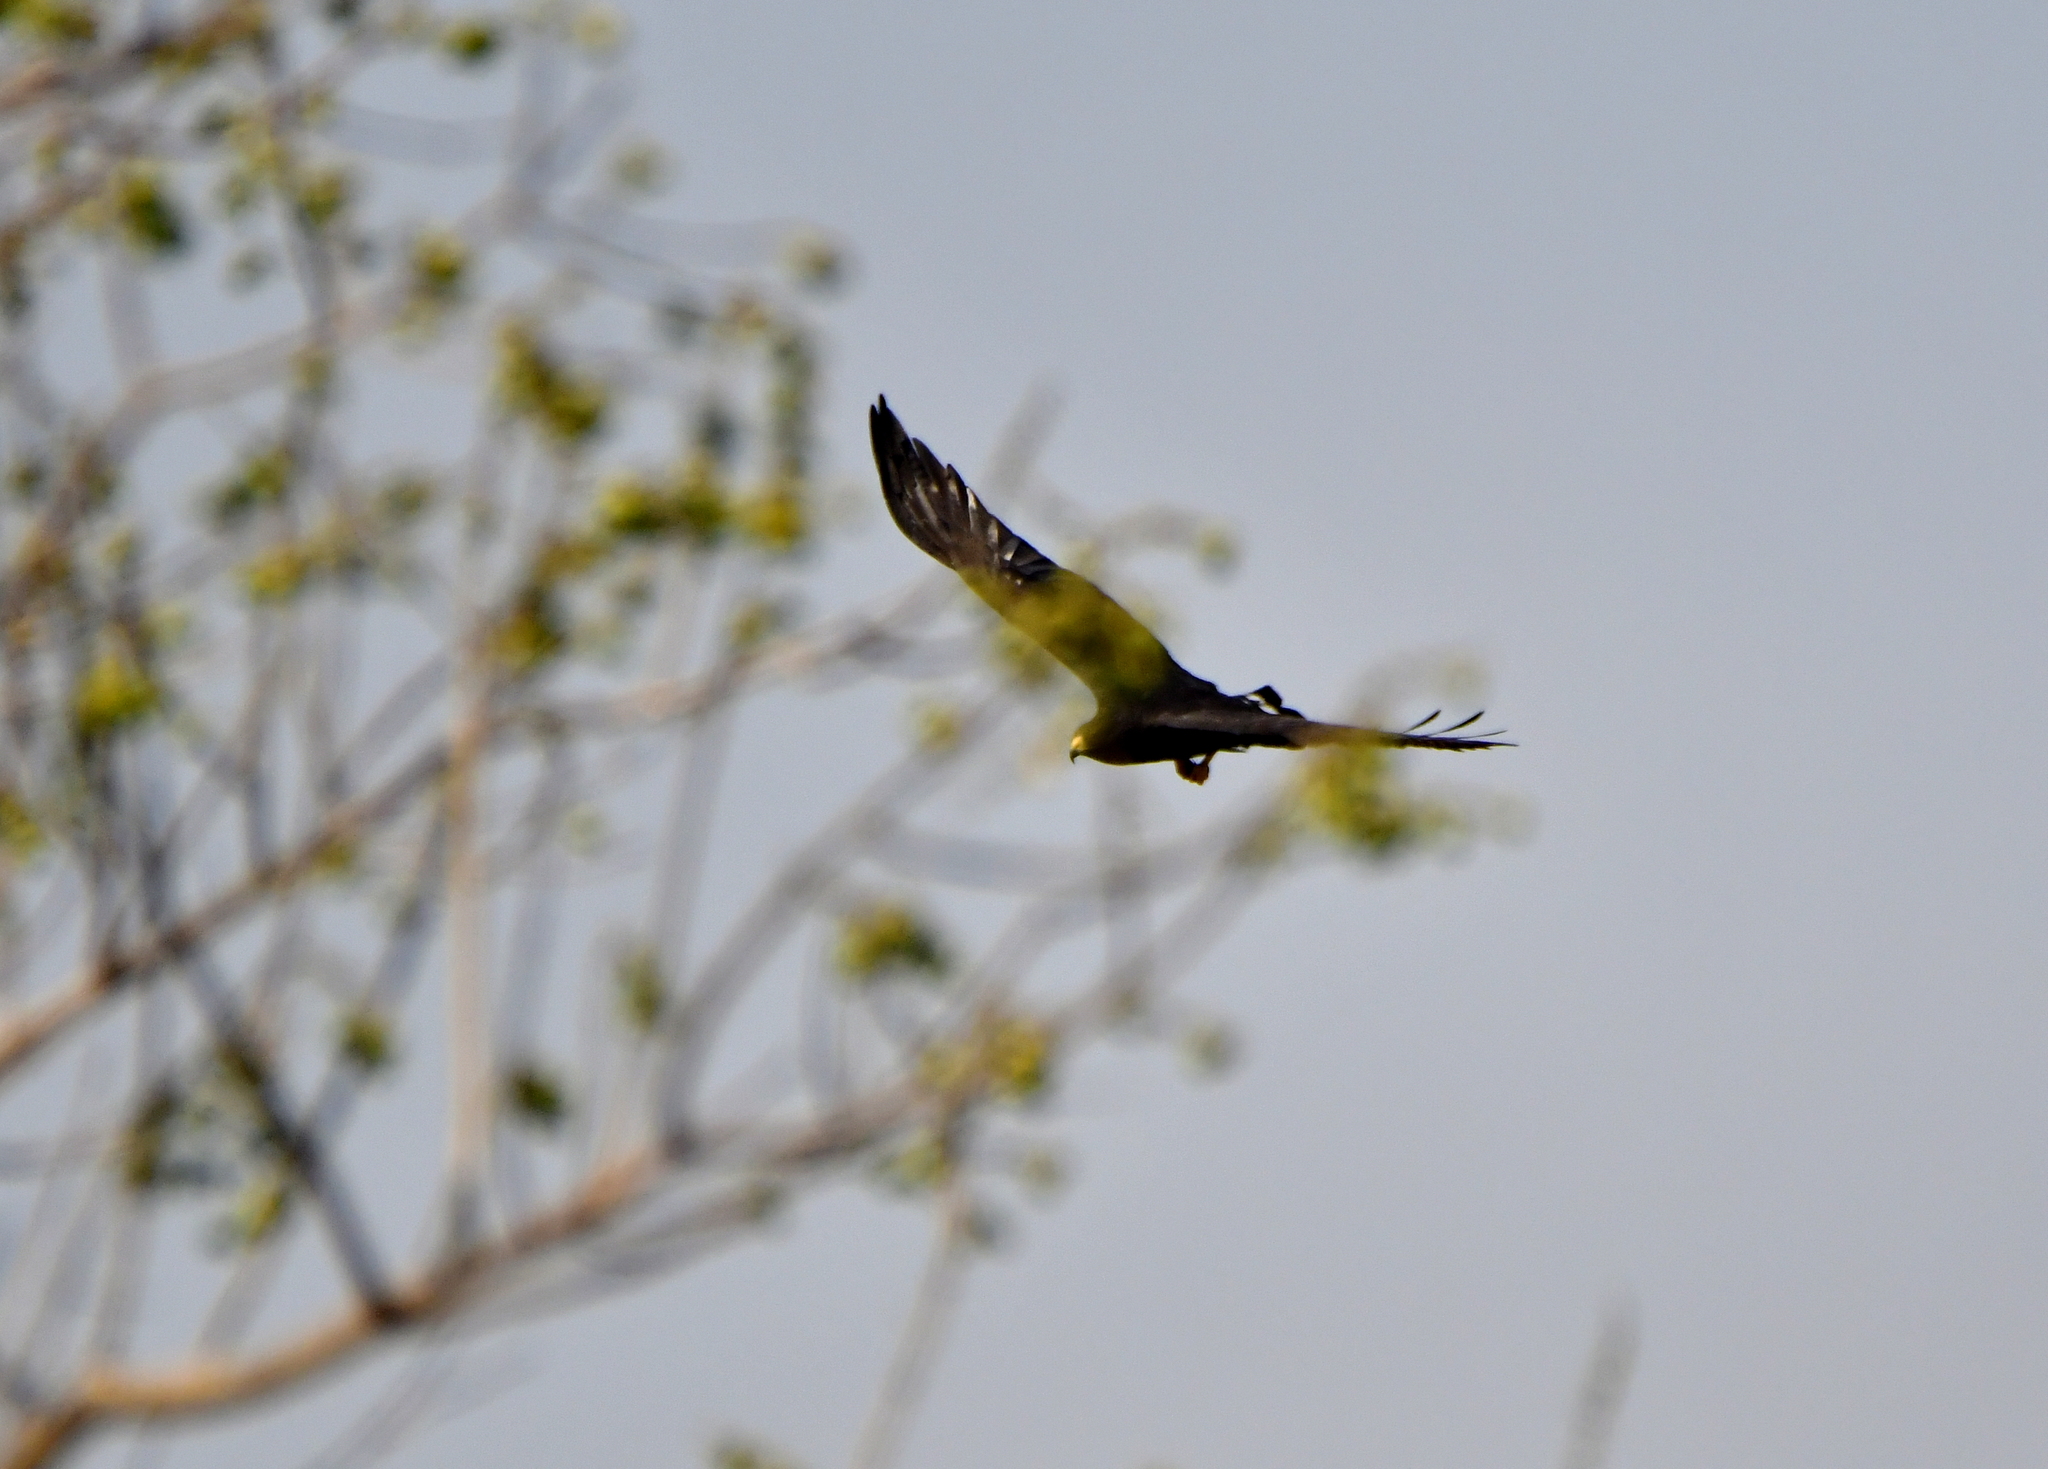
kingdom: Animalia
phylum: Chordata
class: Aves
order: Accipitriformes
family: Accipitridae
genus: Buteogallus
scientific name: Buteogallus anthracinus
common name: Common black hawk
